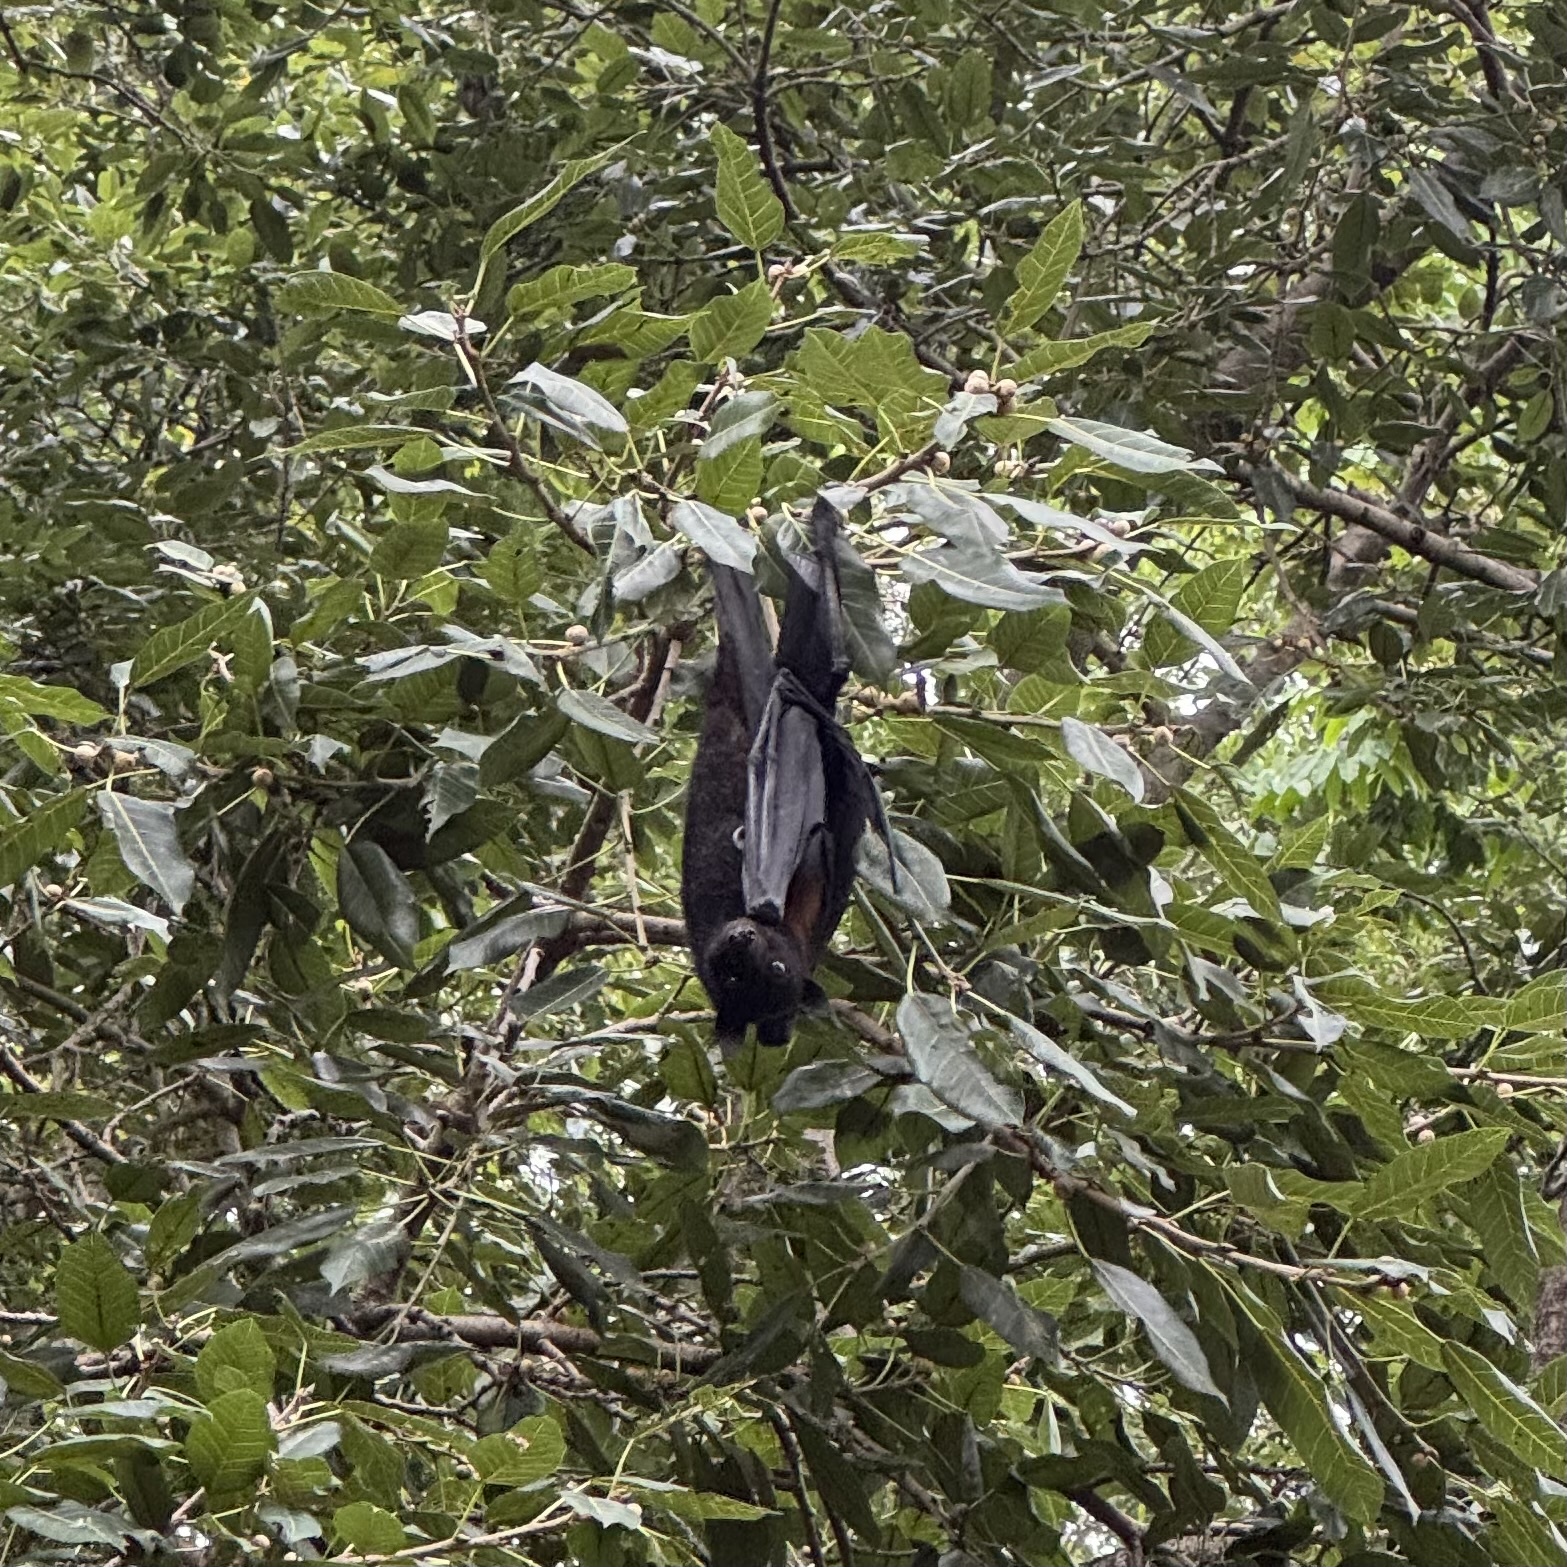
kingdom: Animalia
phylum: Chordata
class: Mammalia
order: Chiroptera
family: Pteropodidae
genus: Pteropus
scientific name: Pteropus alecto
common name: Black flying fox
